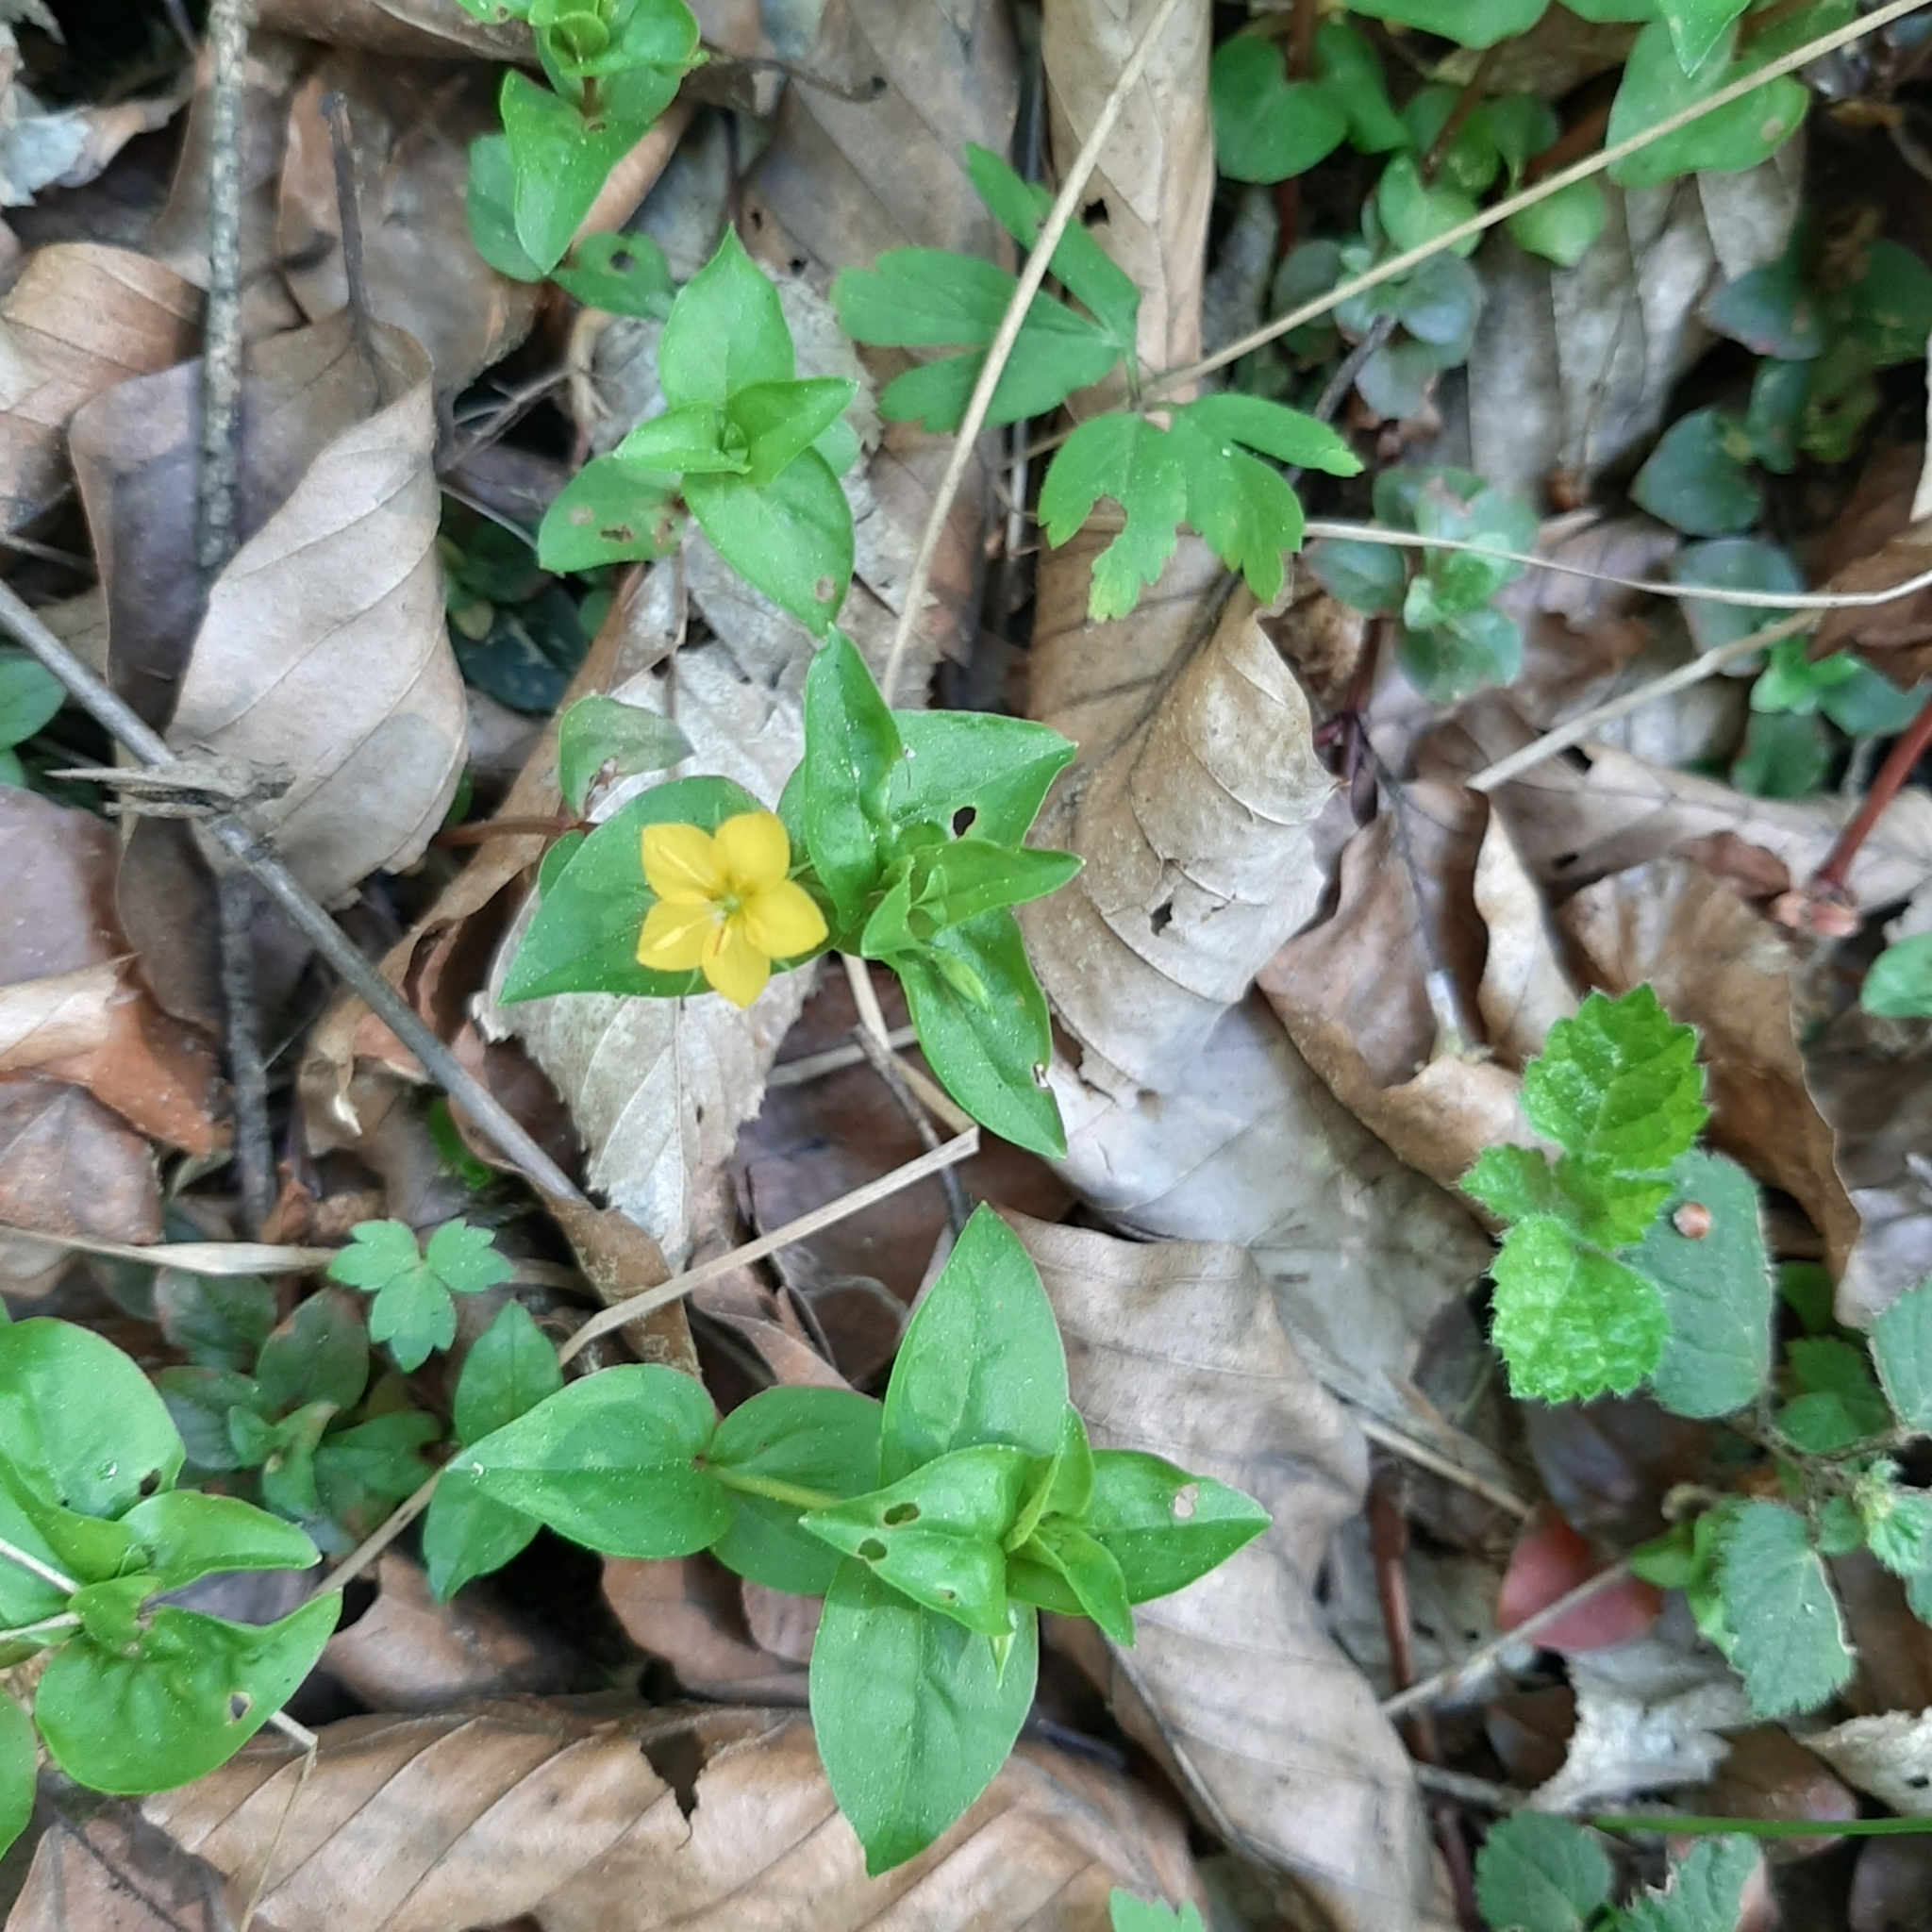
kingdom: Plantae
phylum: Tracheophyta
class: Magnoliopsida
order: Ericales
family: Primulaceae
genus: Lysimachia
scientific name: Lysimachia nemorum
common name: Yellow pimpernel
